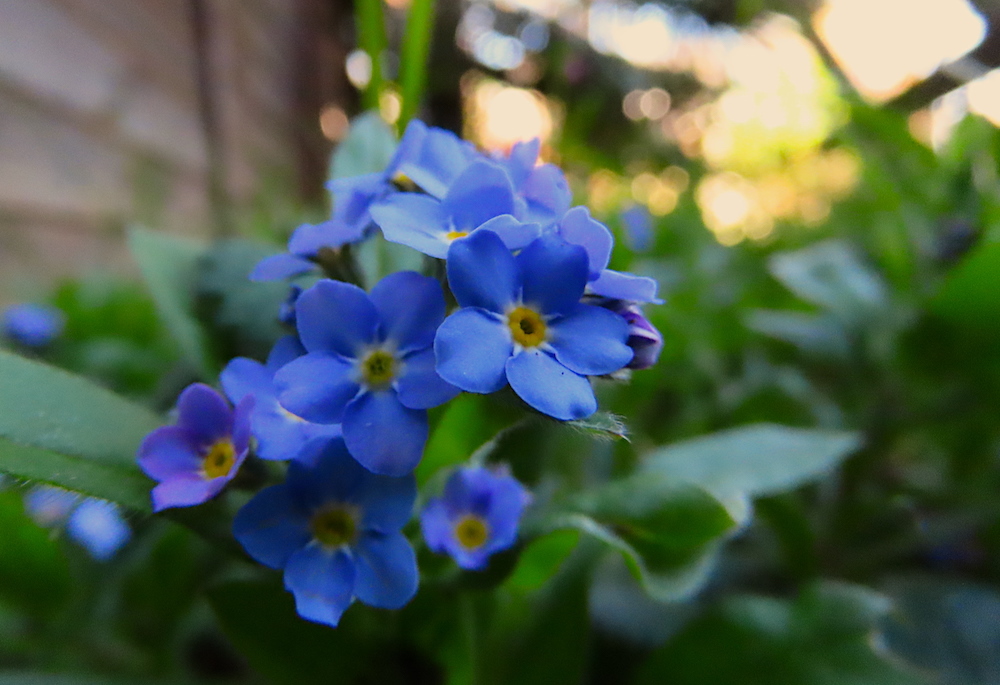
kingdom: Plantae
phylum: Tracheophyta
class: Magnoliopsida
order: Boraginales
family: Boraginaceae
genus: Myosotis
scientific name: Myosotis sylvatica
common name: Wood forget-me-not
